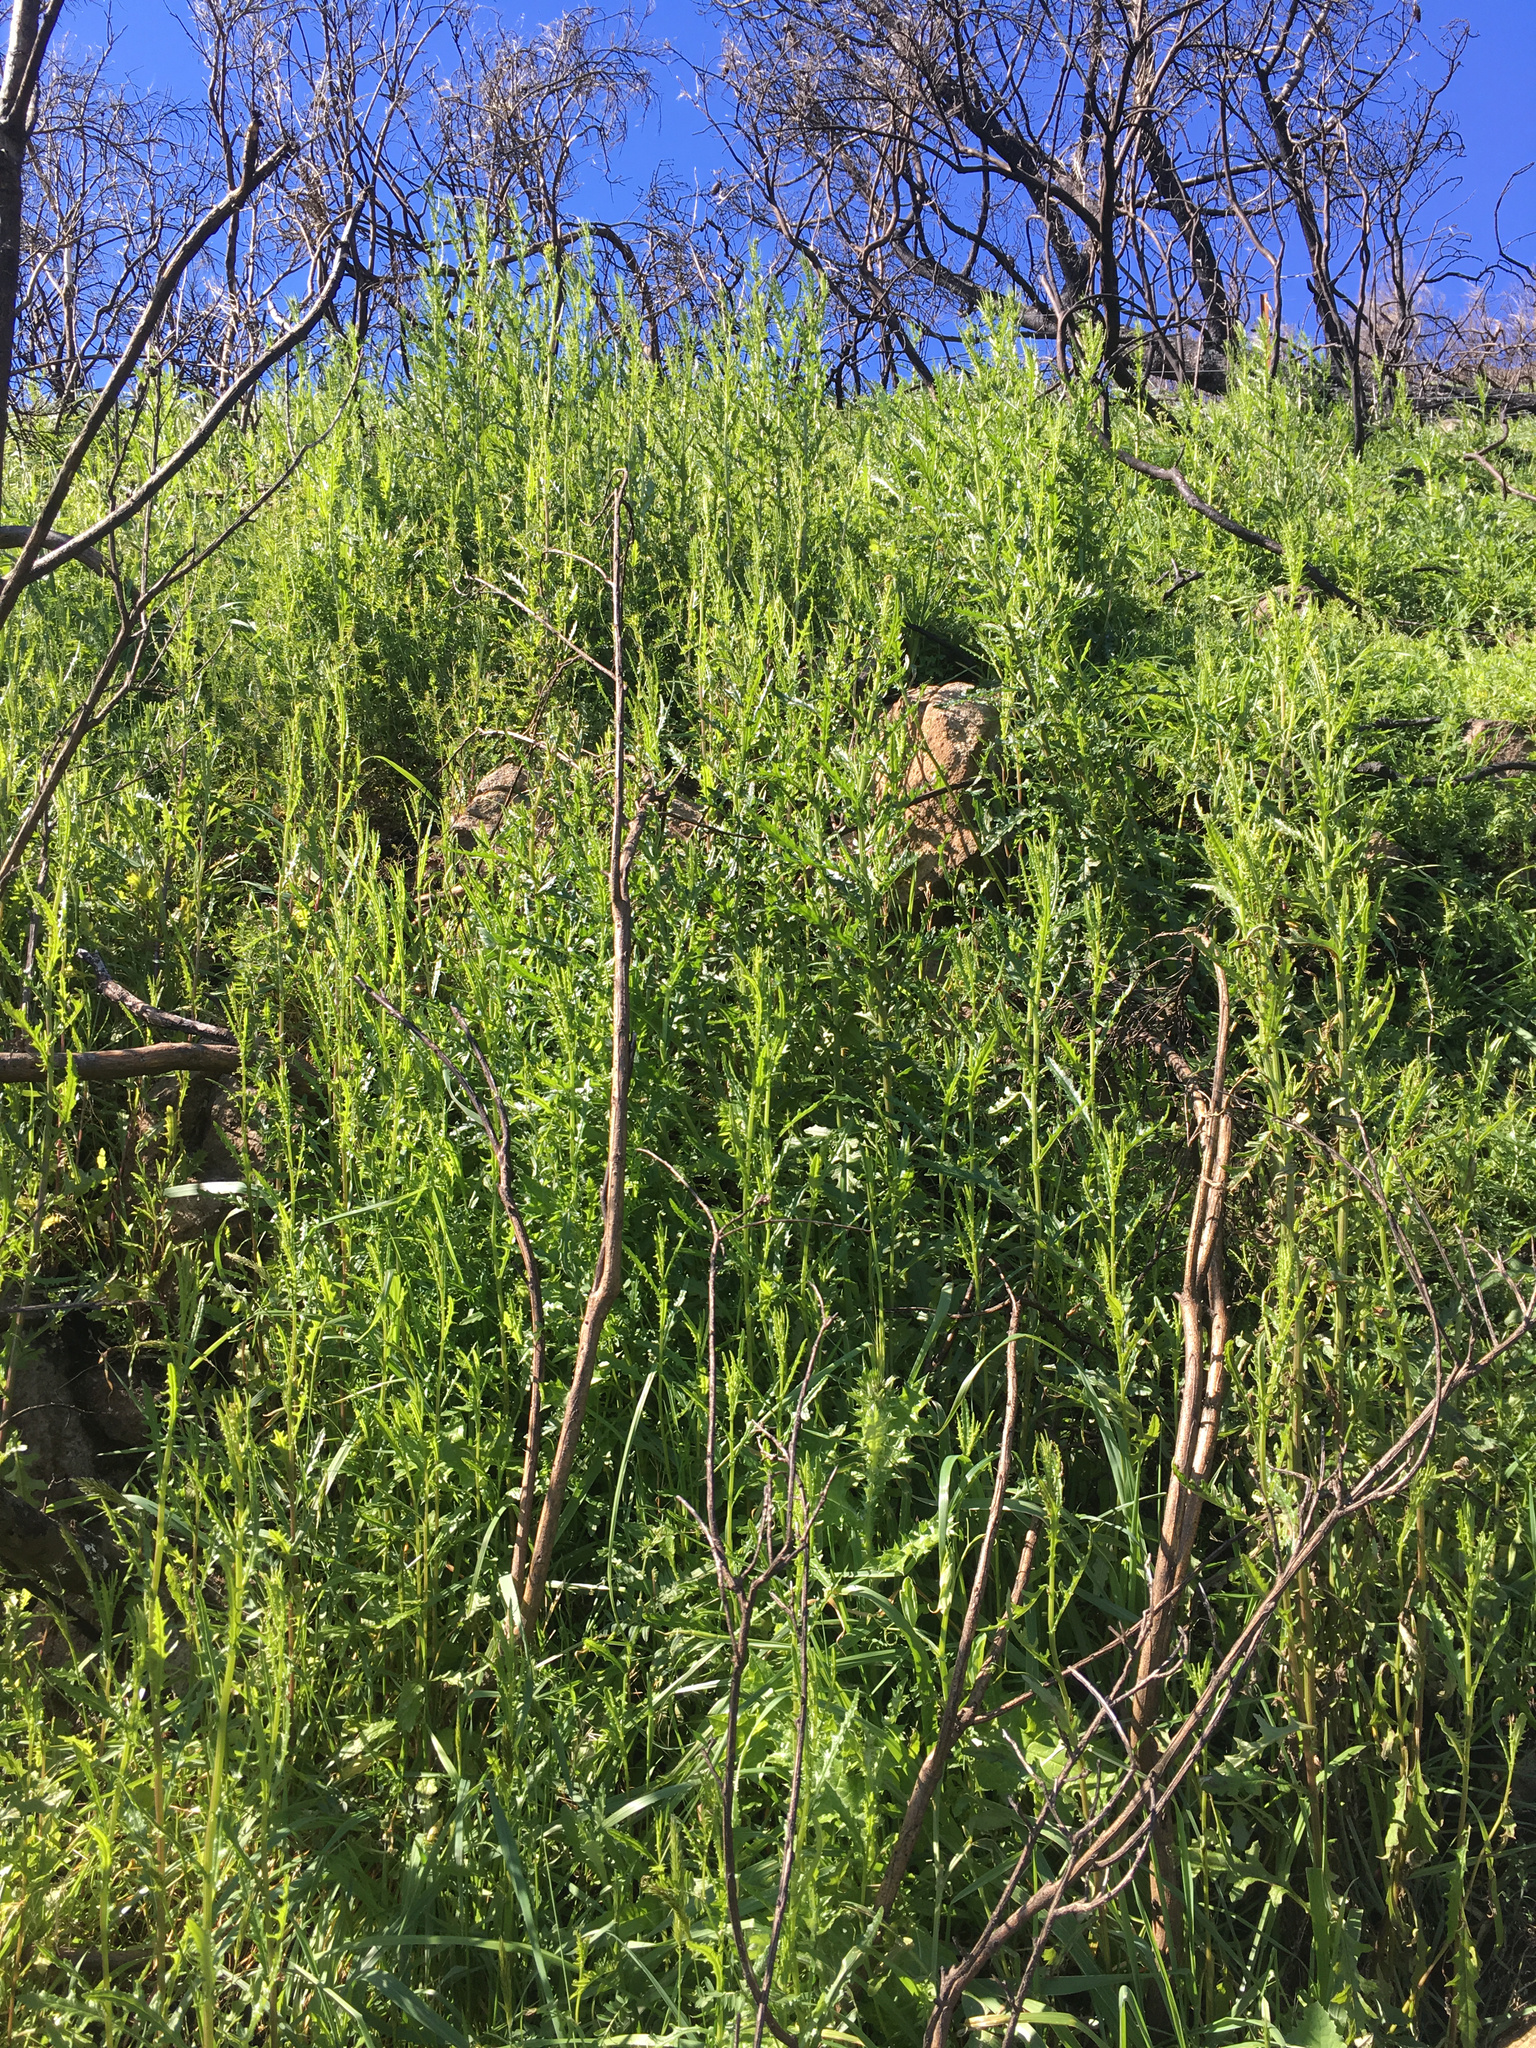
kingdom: Plantae
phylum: Tracheophyta
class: Magnoliopsida
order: Asterales
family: Asteraceae
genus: Senecio
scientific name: Senecio hispidulus
